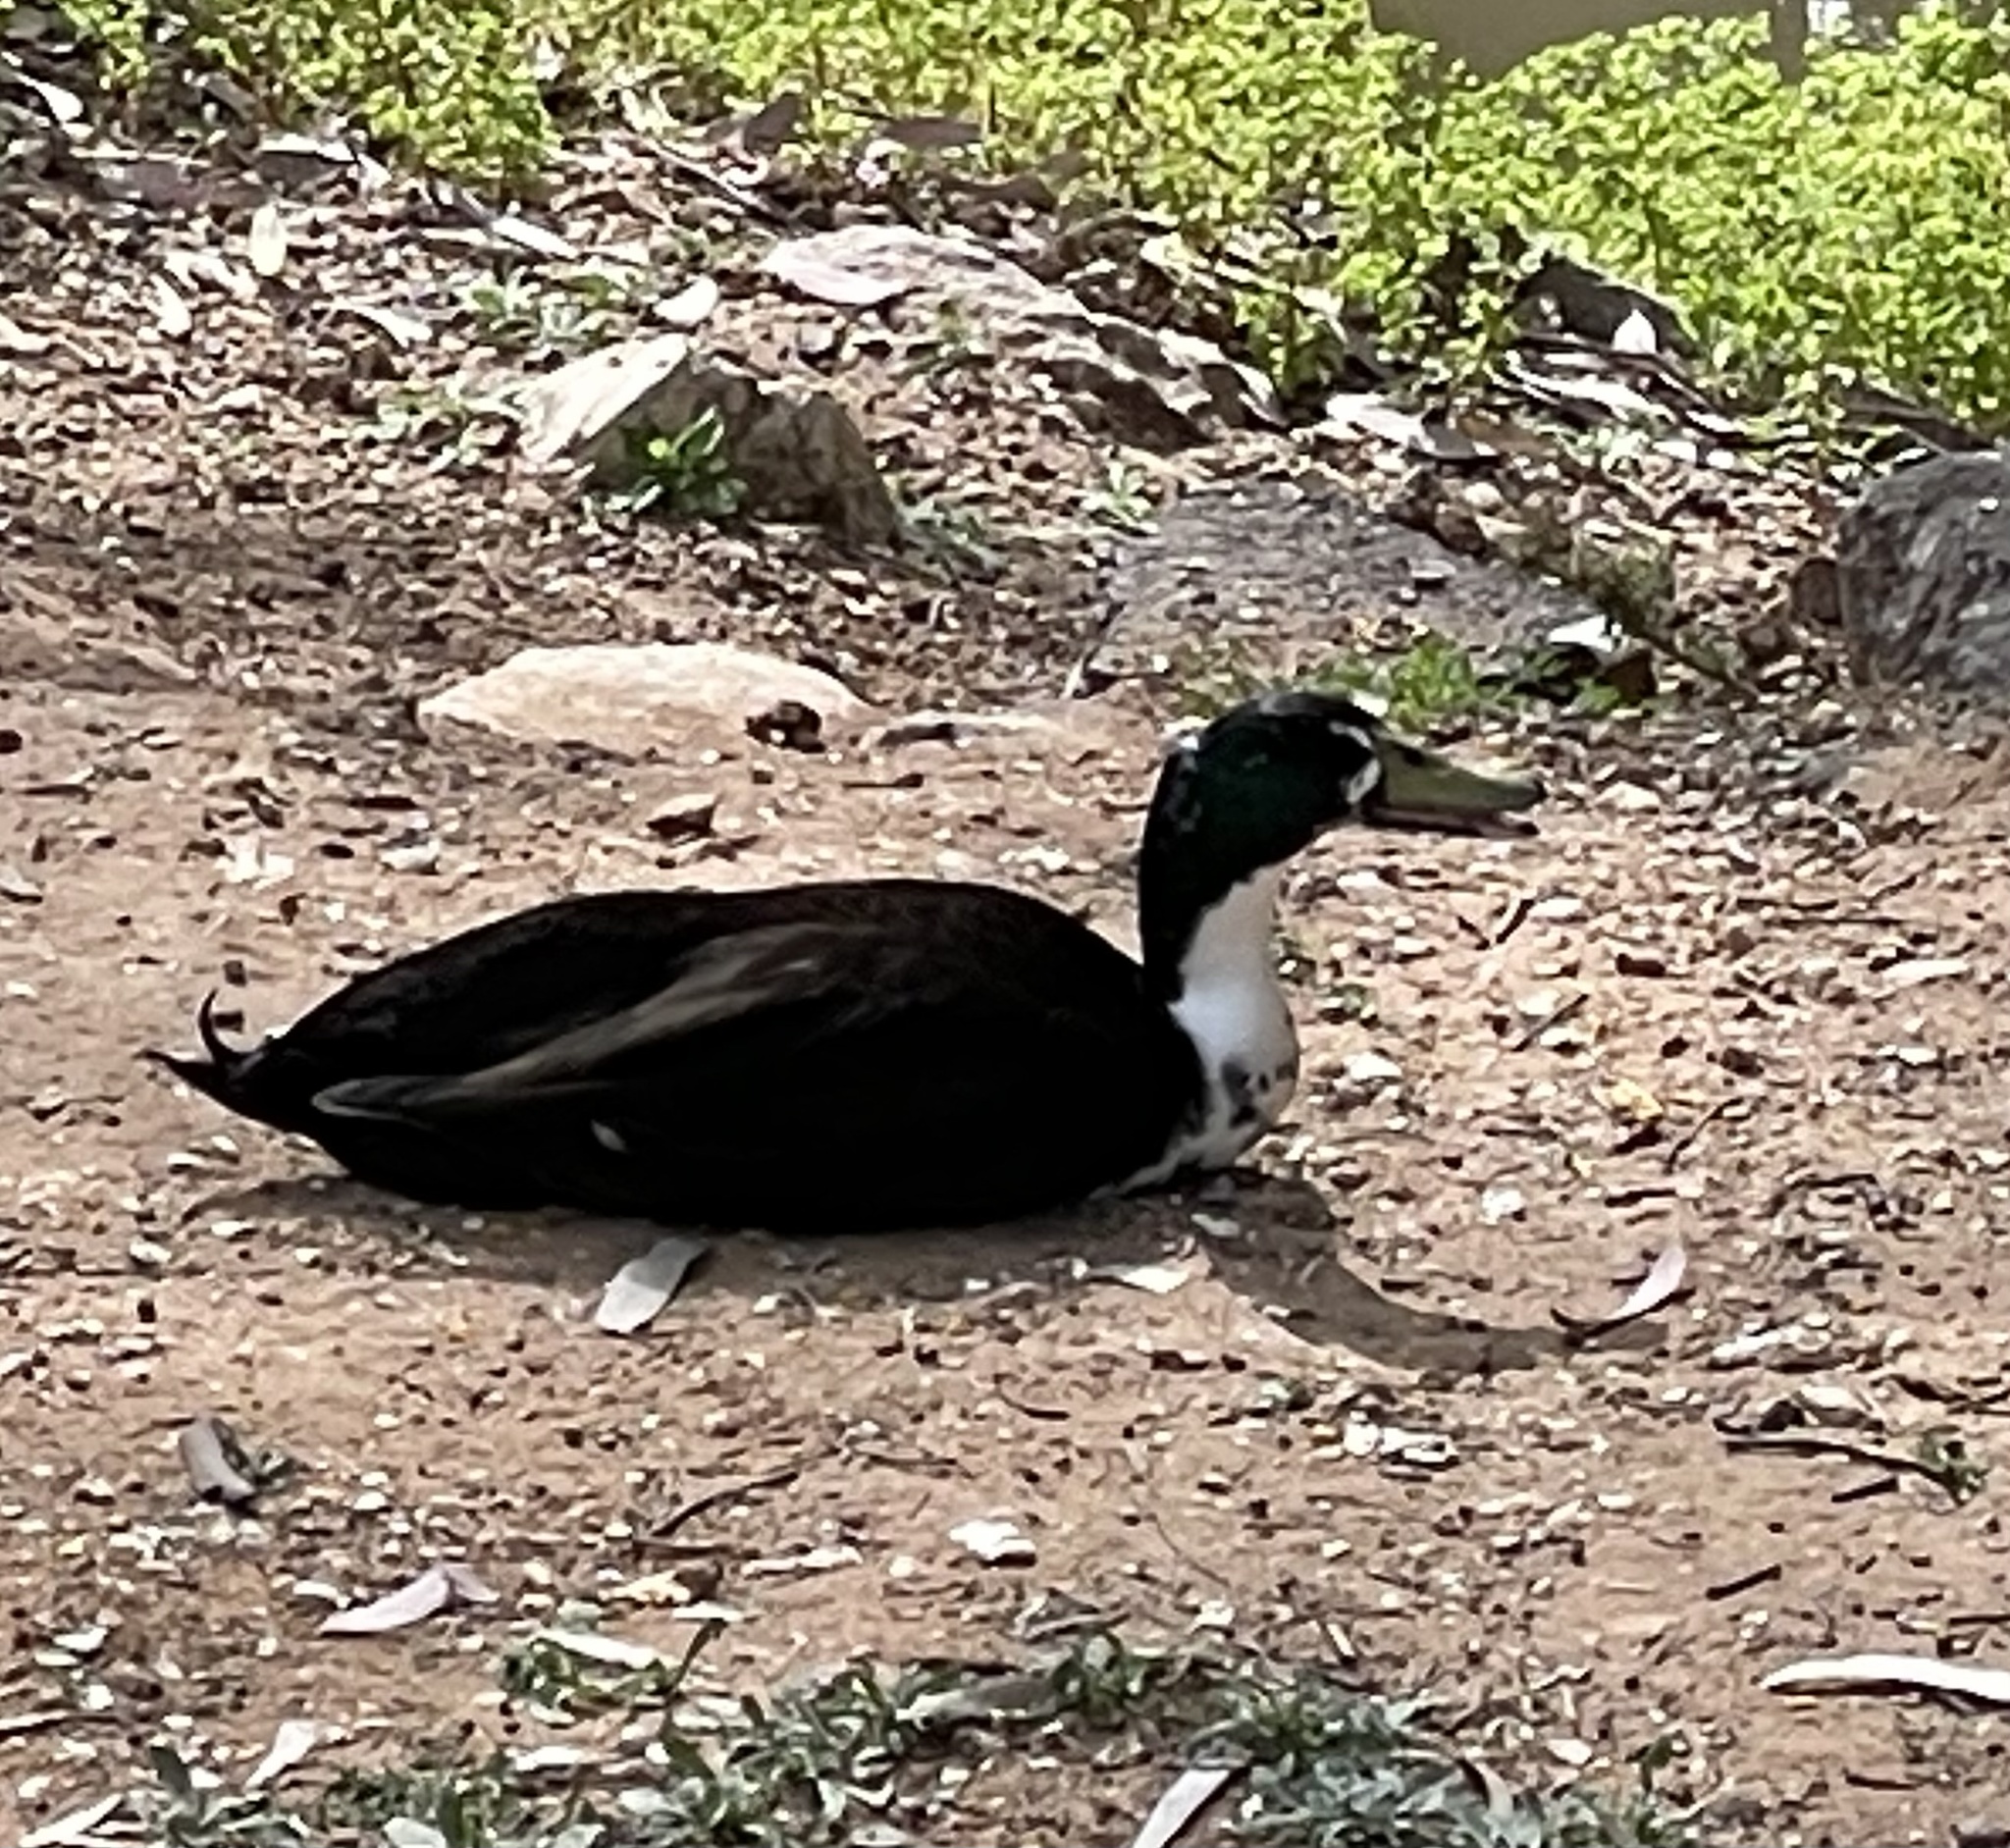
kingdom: Animalia
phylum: Chordata
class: Aves
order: Anseriformes
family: Anatidae
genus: Anas
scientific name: Anas platyrhynchos
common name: Mallard
